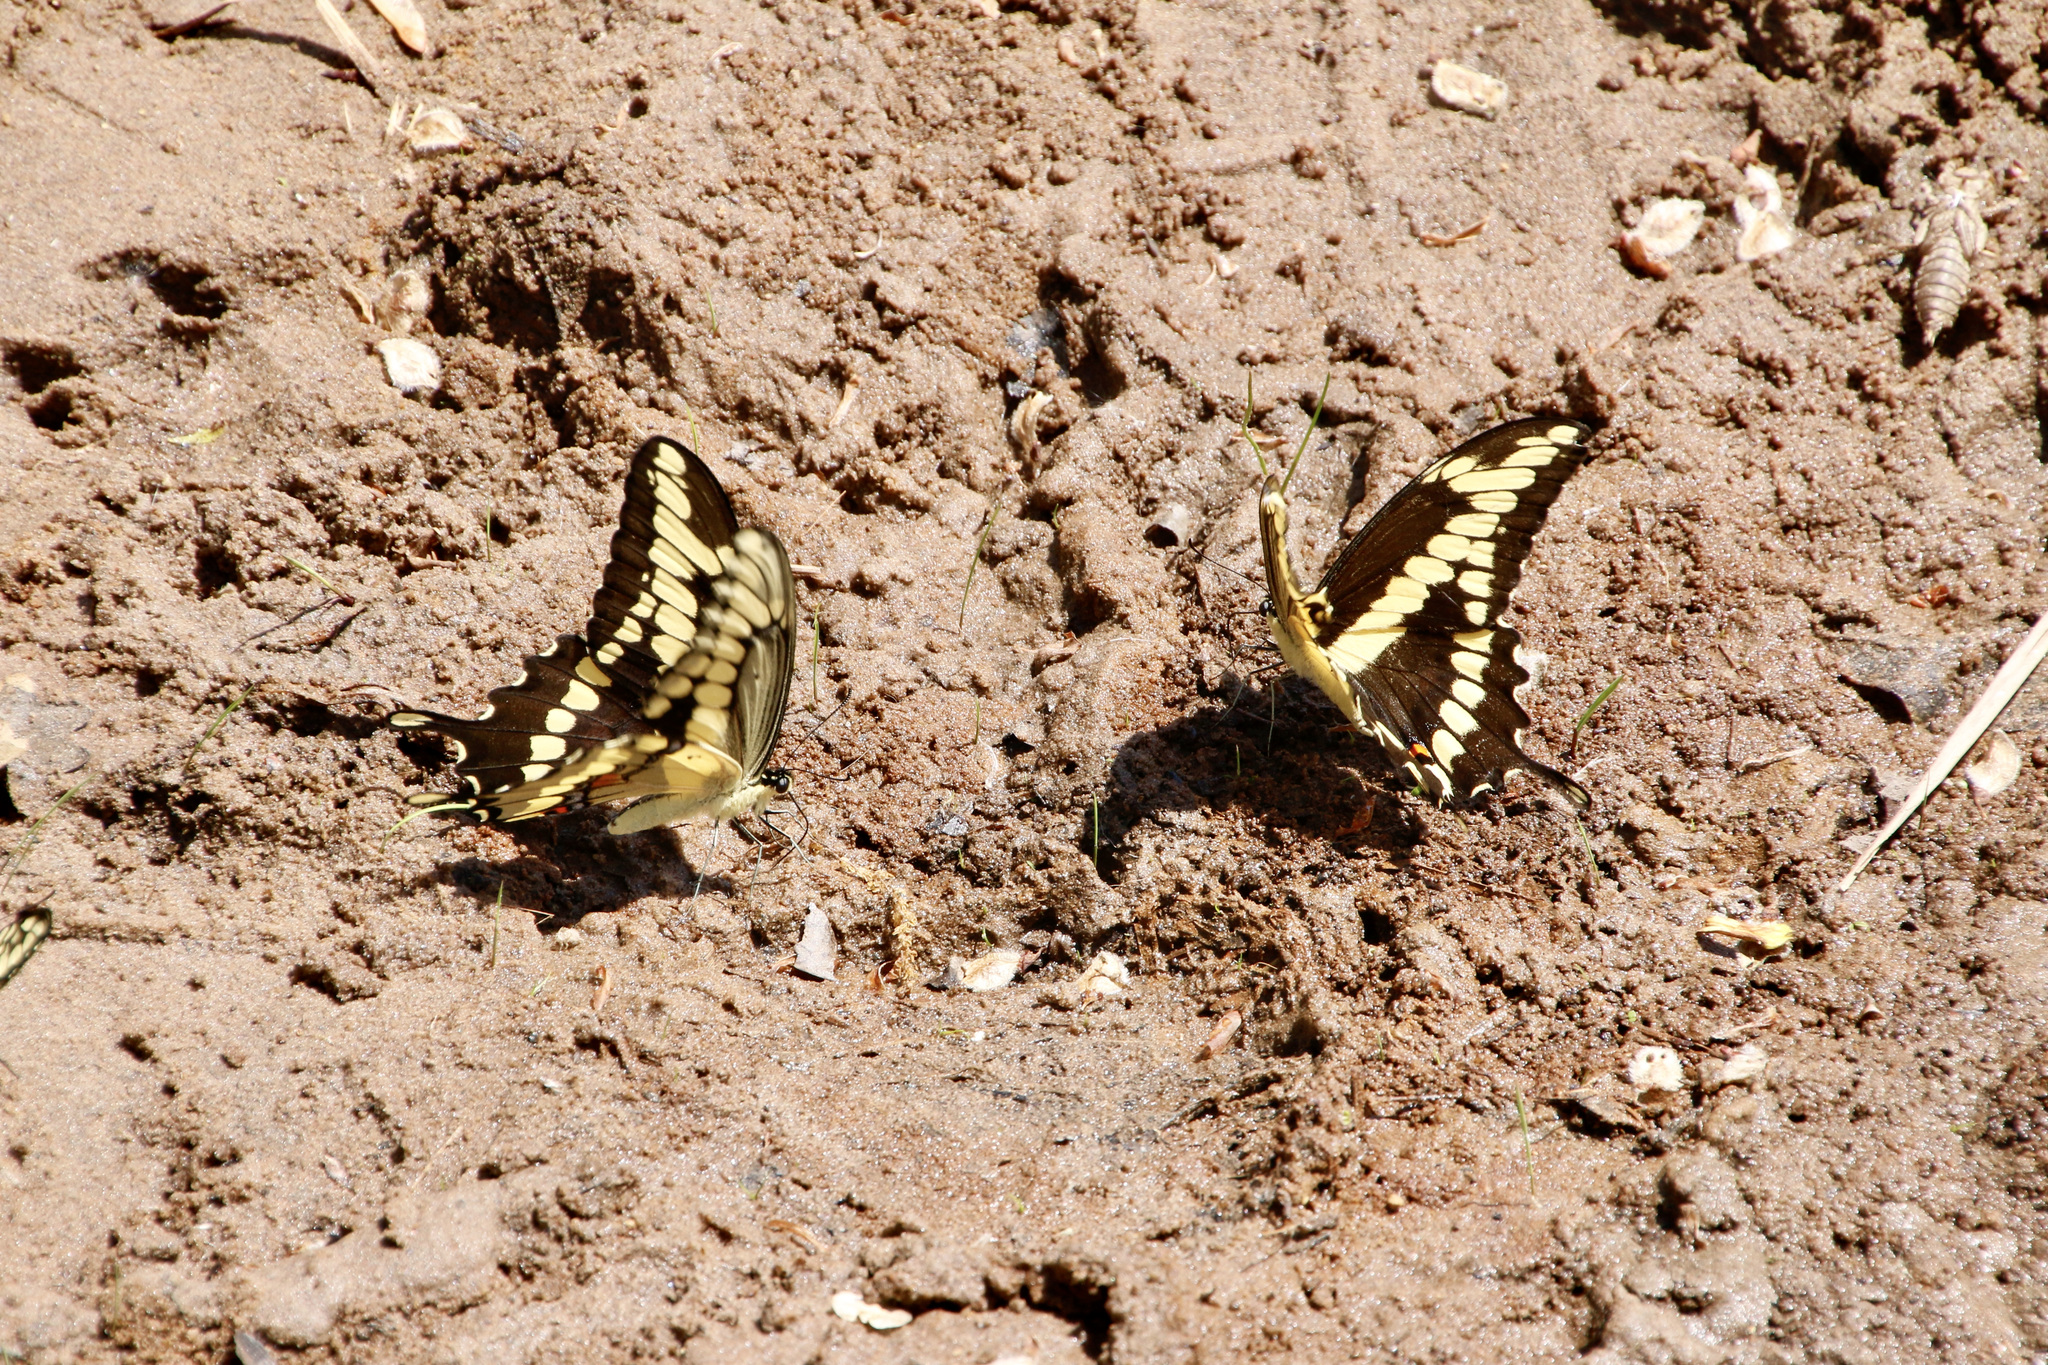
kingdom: Animalia
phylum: Arthropoda
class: Insecta
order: Lepidoptera
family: Papilionidae
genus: Papilio
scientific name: Papilio cresphontes
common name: Giant swallowtail
